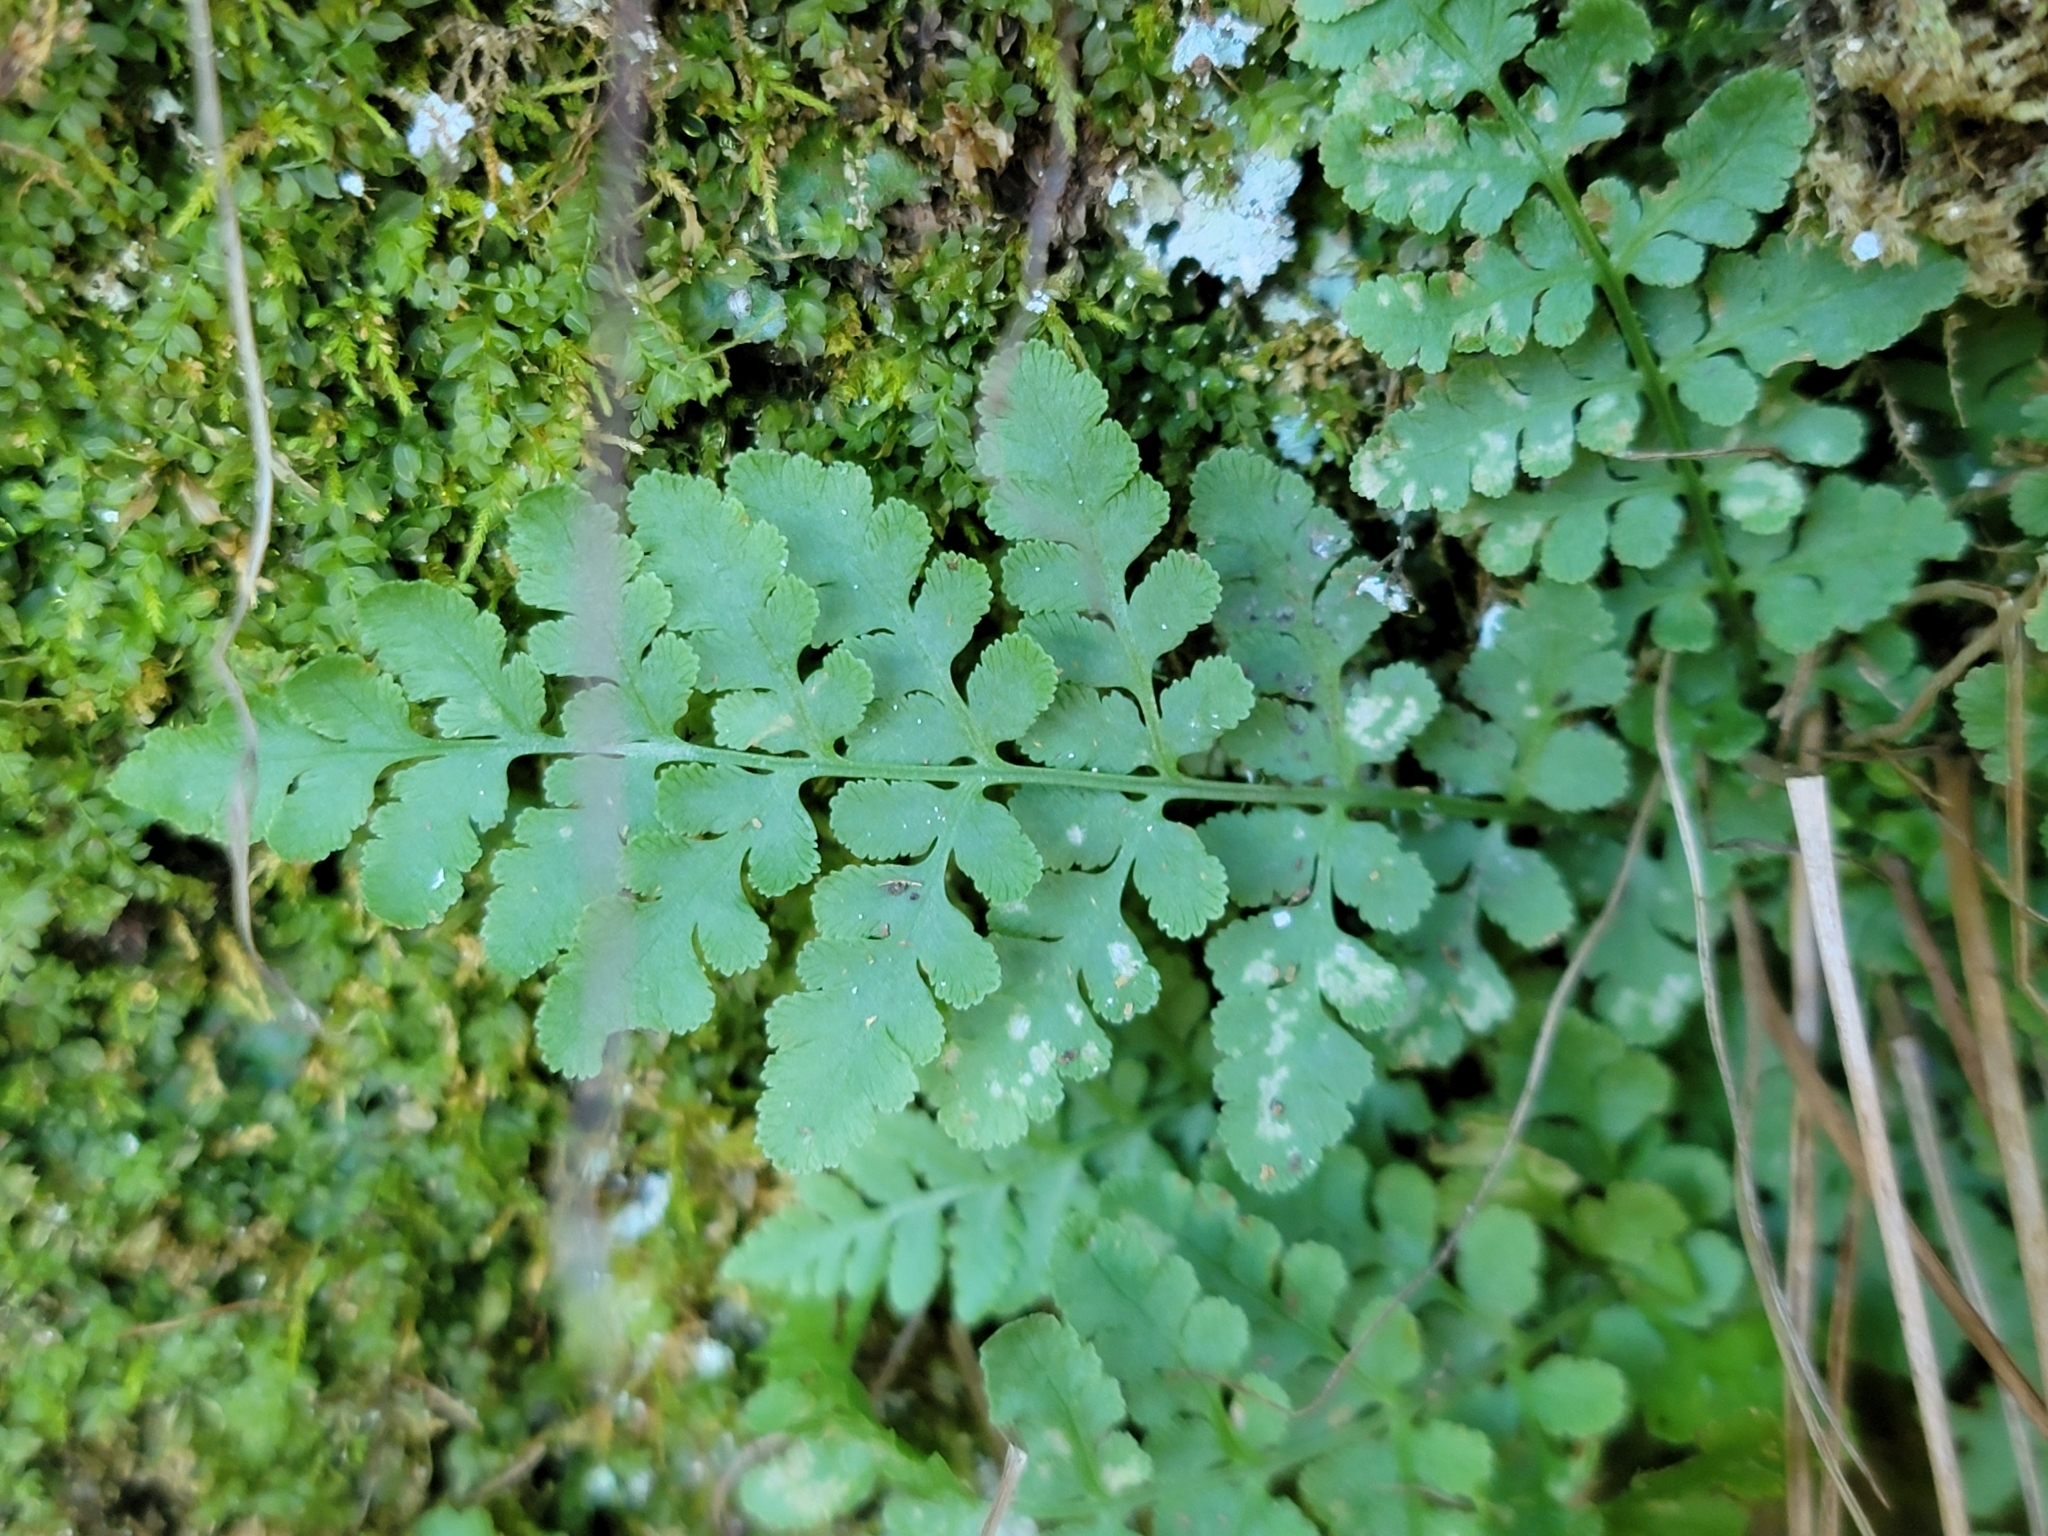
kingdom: Plantae
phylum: Tracheophyta
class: Polypodiopsida
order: Polypodiales
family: Cystopteridaceae
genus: Cystopteris
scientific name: Cystopteris tenuis
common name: Mackay's brittle fern
